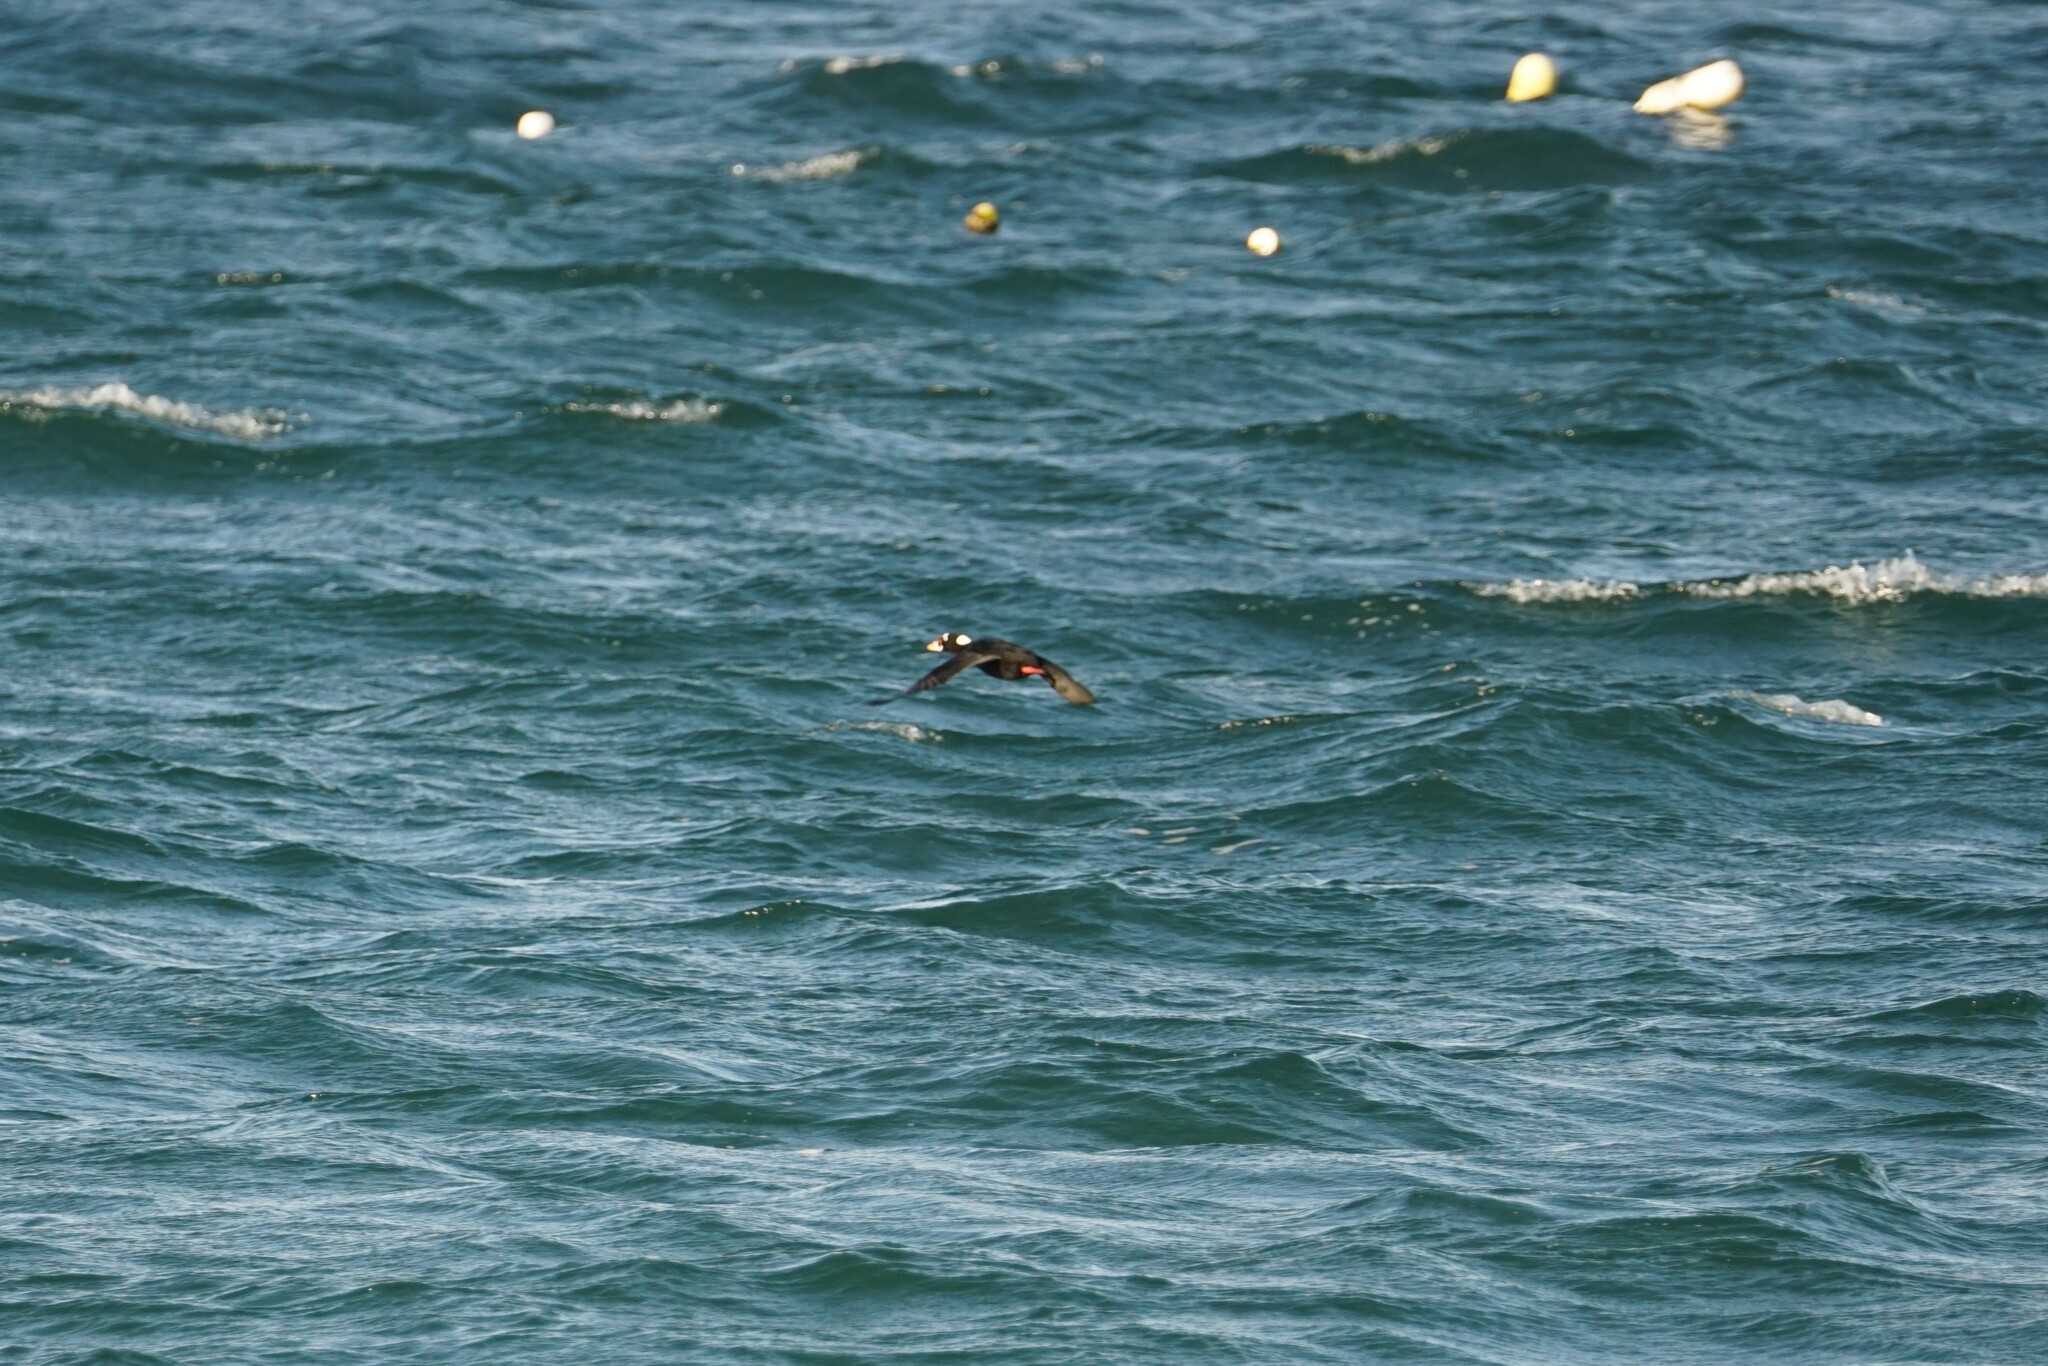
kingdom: Animalia
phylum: Chordata
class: Aves
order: Anseriformes
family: Anatidae
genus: Melanitta
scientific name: Melanitta perspicillata
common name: Surf scoter
